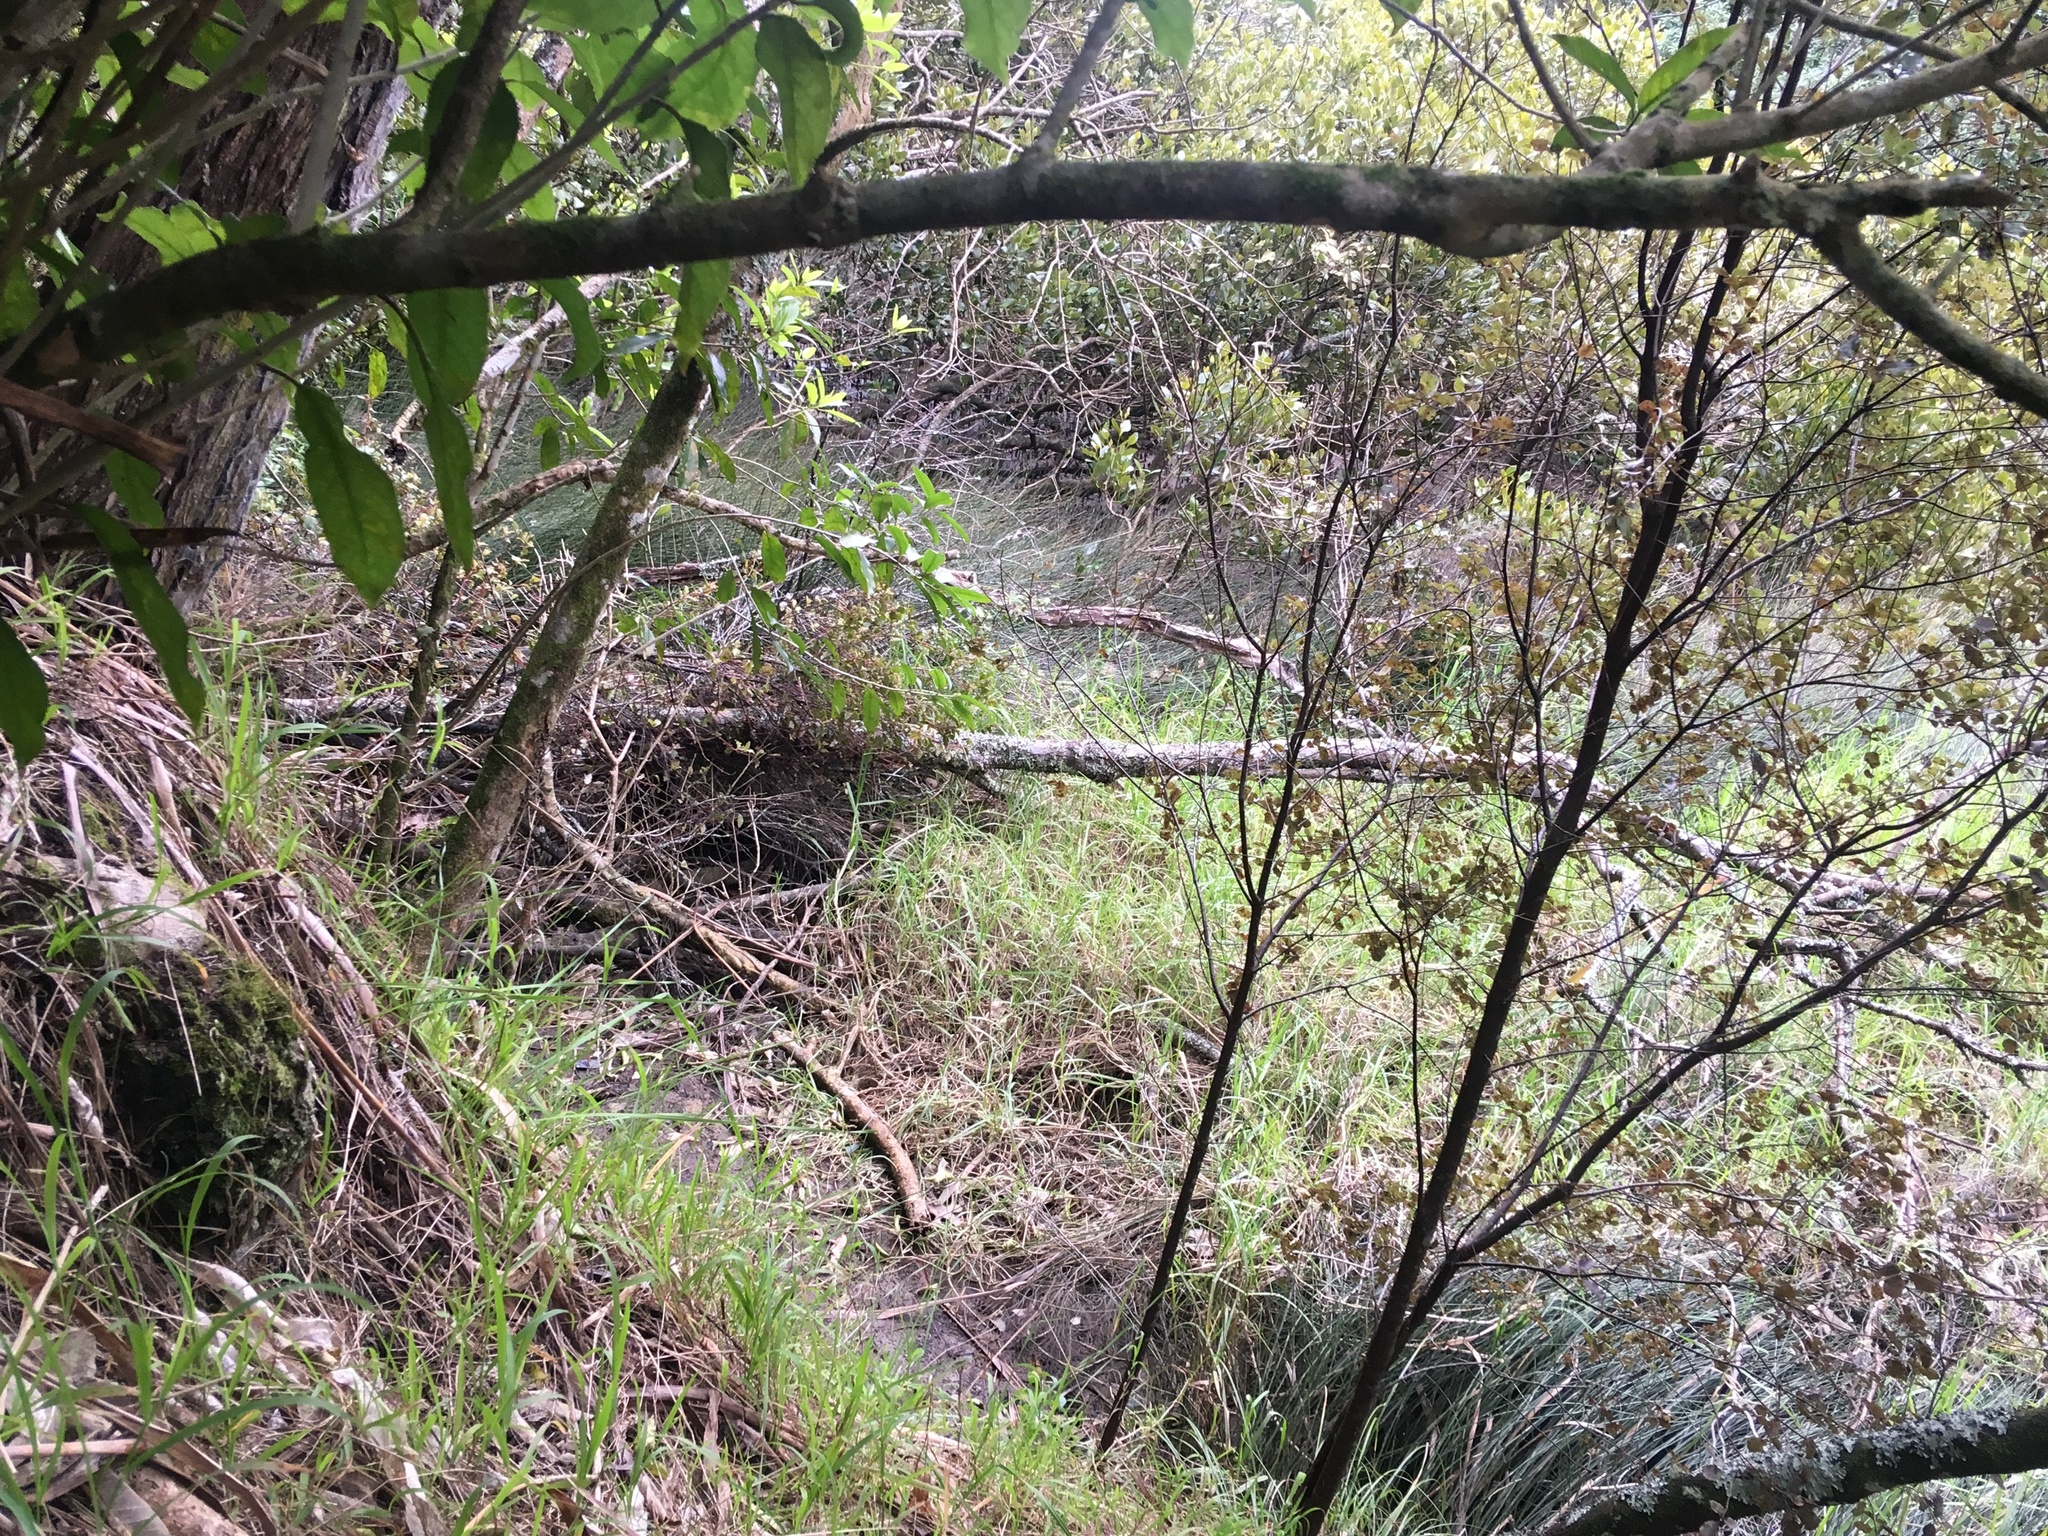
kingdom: Plantae
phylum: Tracheophyta
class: Magnoliopsida
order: Lamiales
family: Acanthaceae
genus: Avicennia
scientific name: Avicennia marina
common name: Gray mangrove
